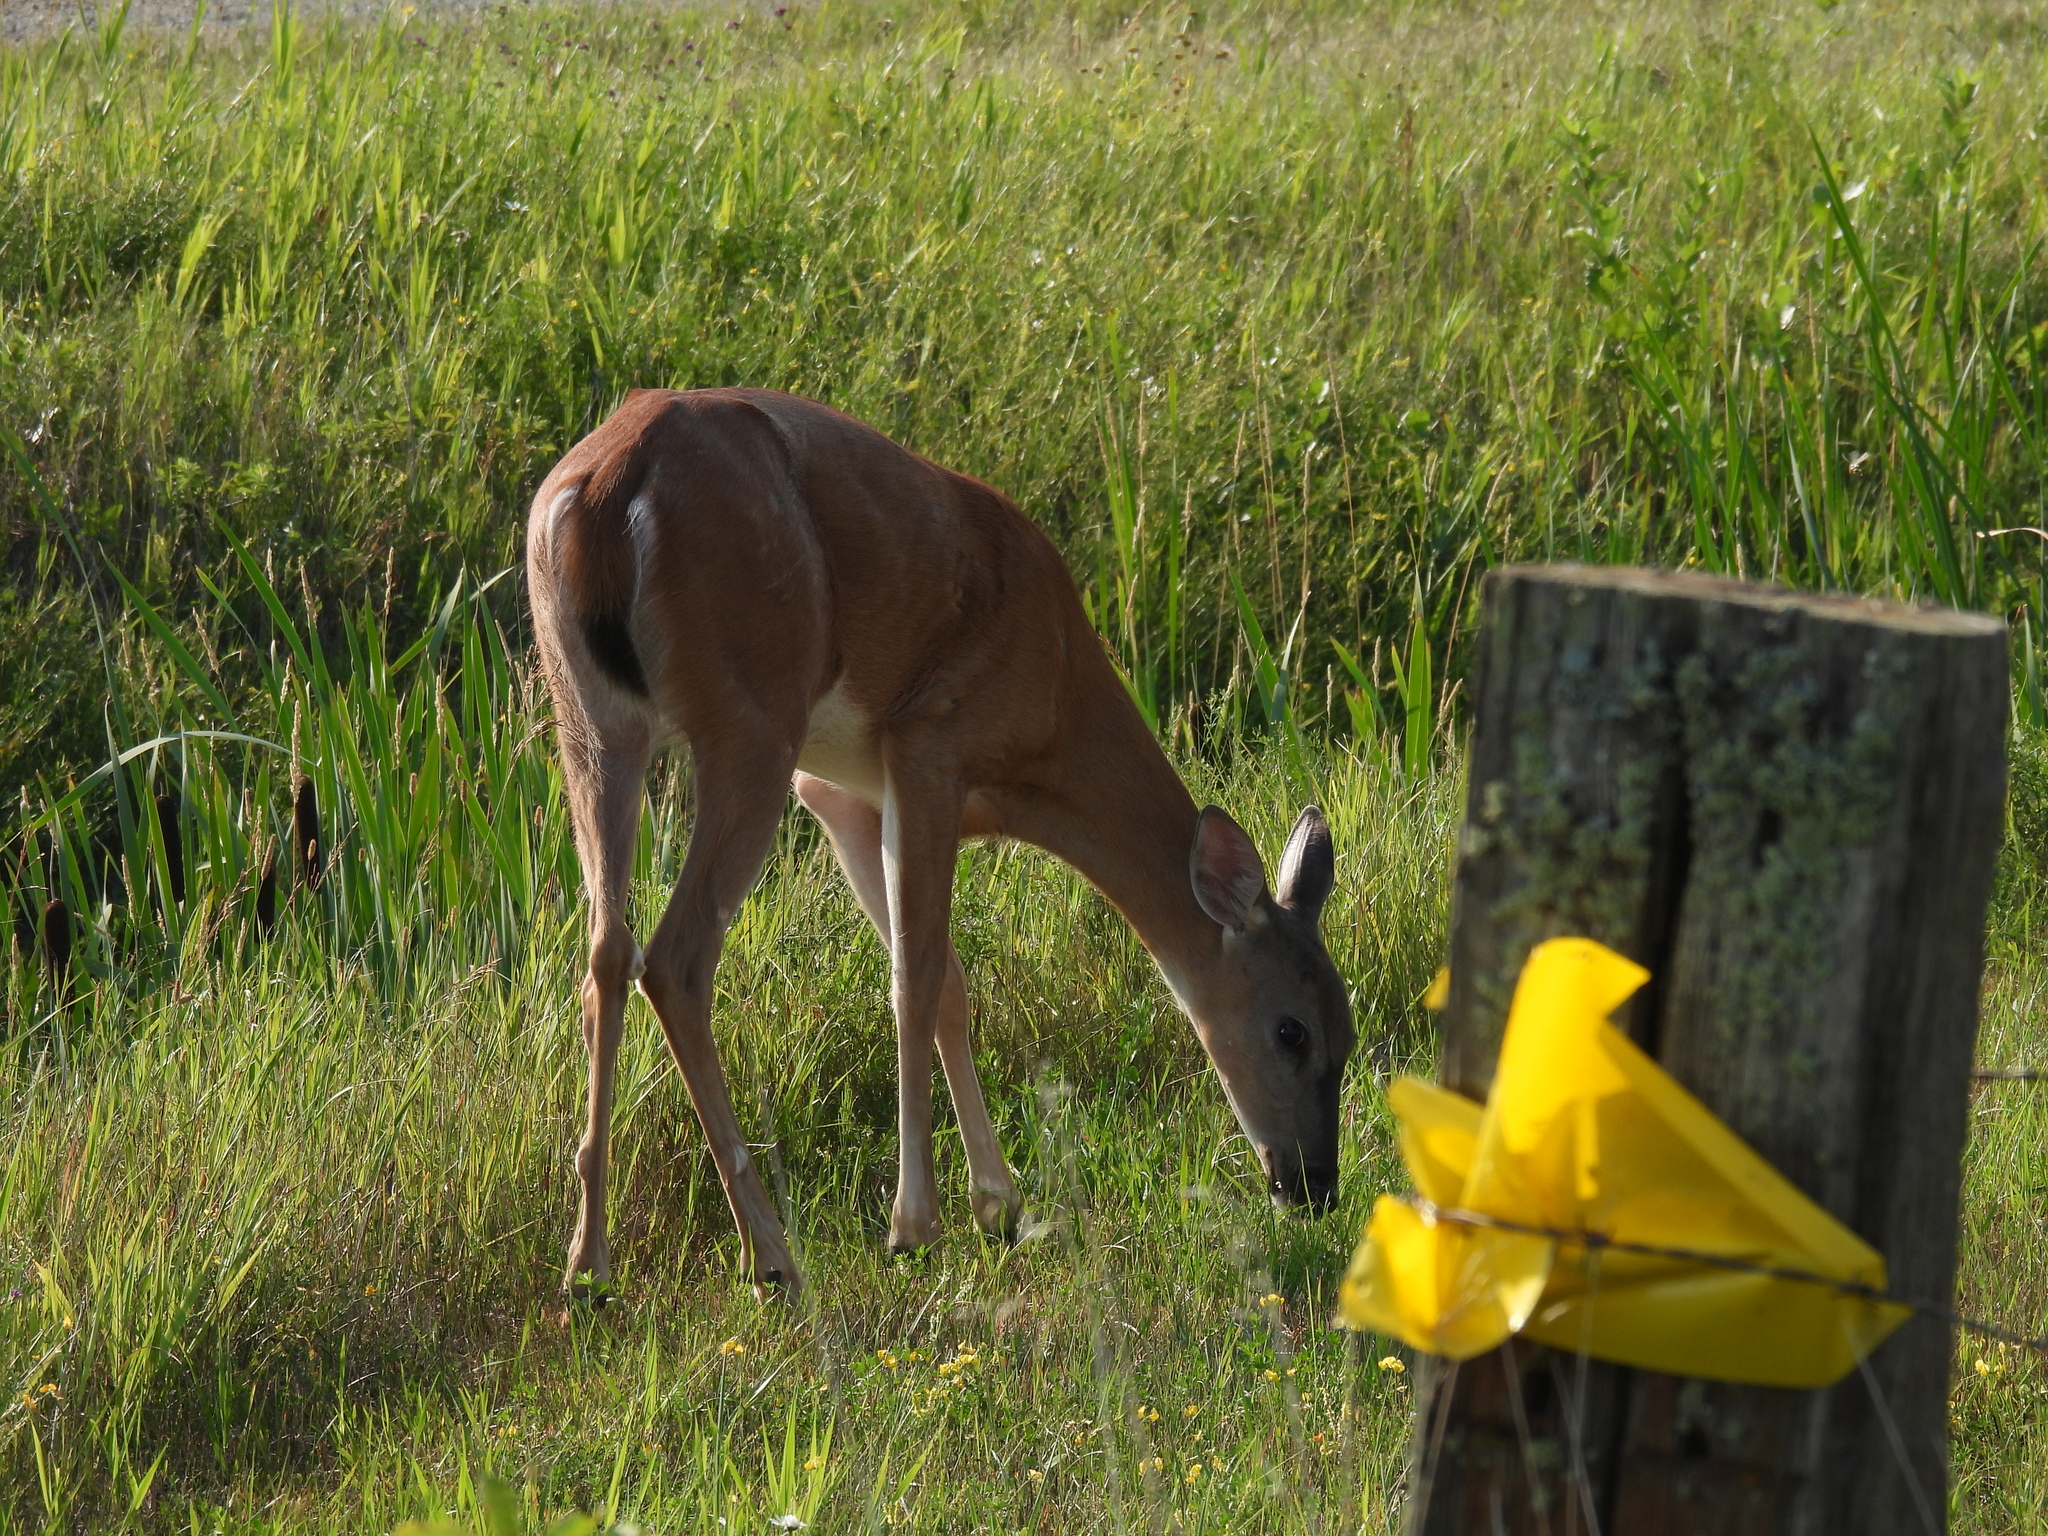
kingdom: Animalia
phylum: Chordata
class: Mammalia
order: Artiodactyla
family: Cervidae
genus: Odocoileus
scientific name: Odocoileus virginianus
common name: White-tailed deer
